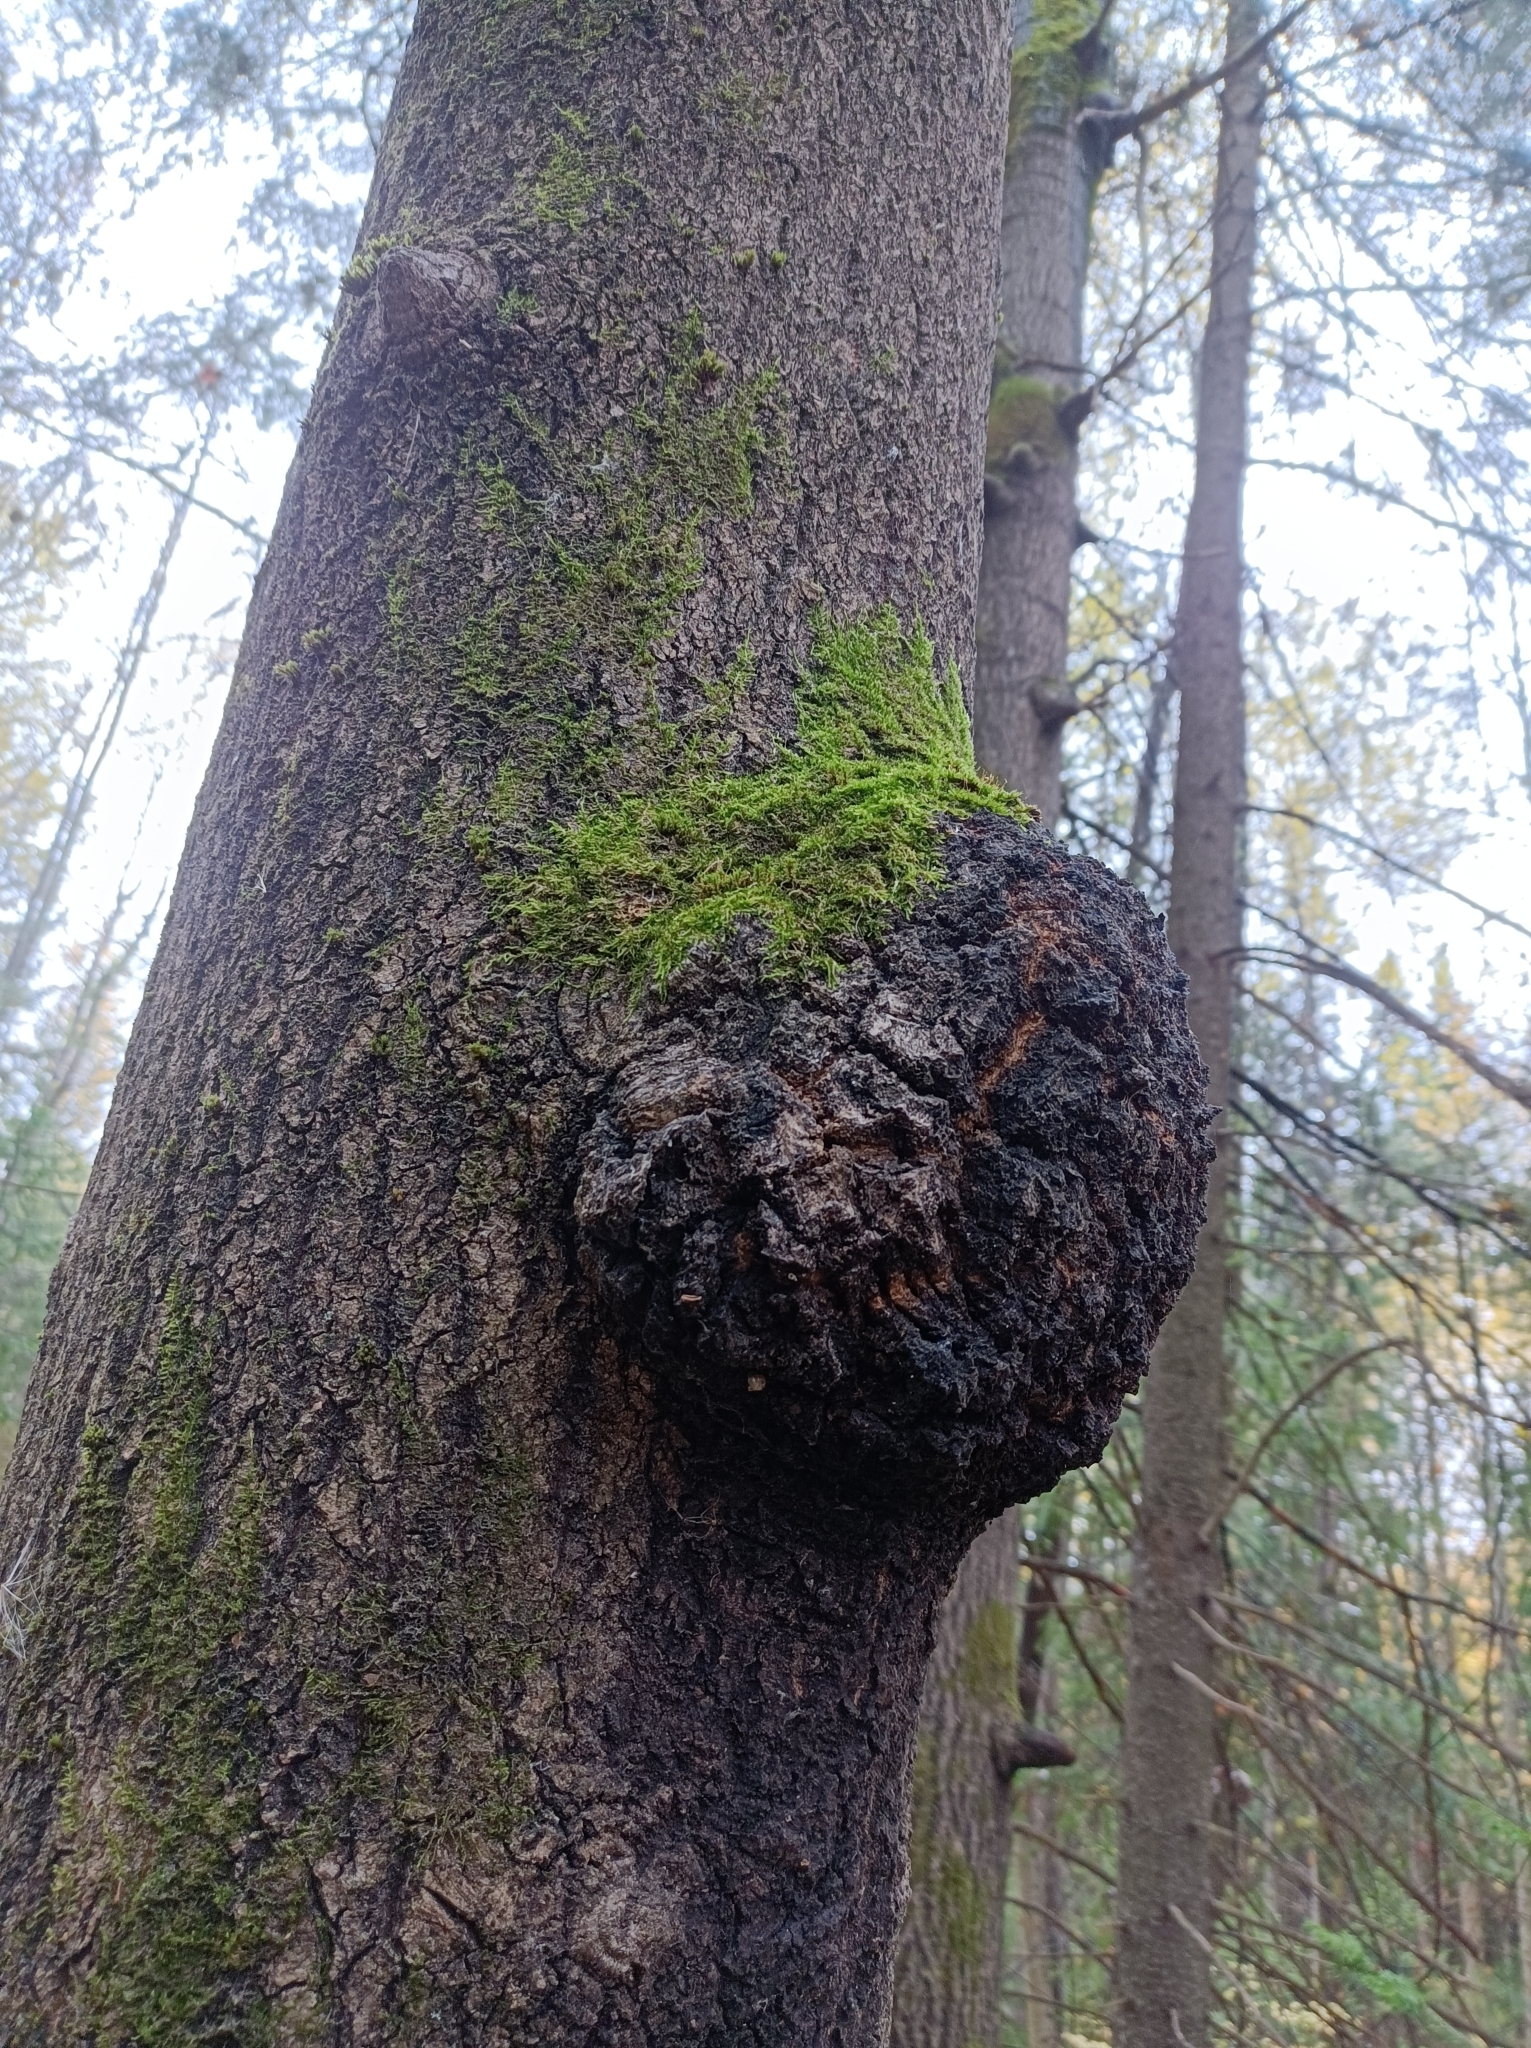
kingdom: Bacteria
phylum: Proteobacteria
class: Alphaproteobacteria
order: Rhizobiales
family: Rhizobiaceae
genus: Rhizobium
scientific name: Rhizobium Agrobacterium radiobacter
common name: Bacterial crown gall
